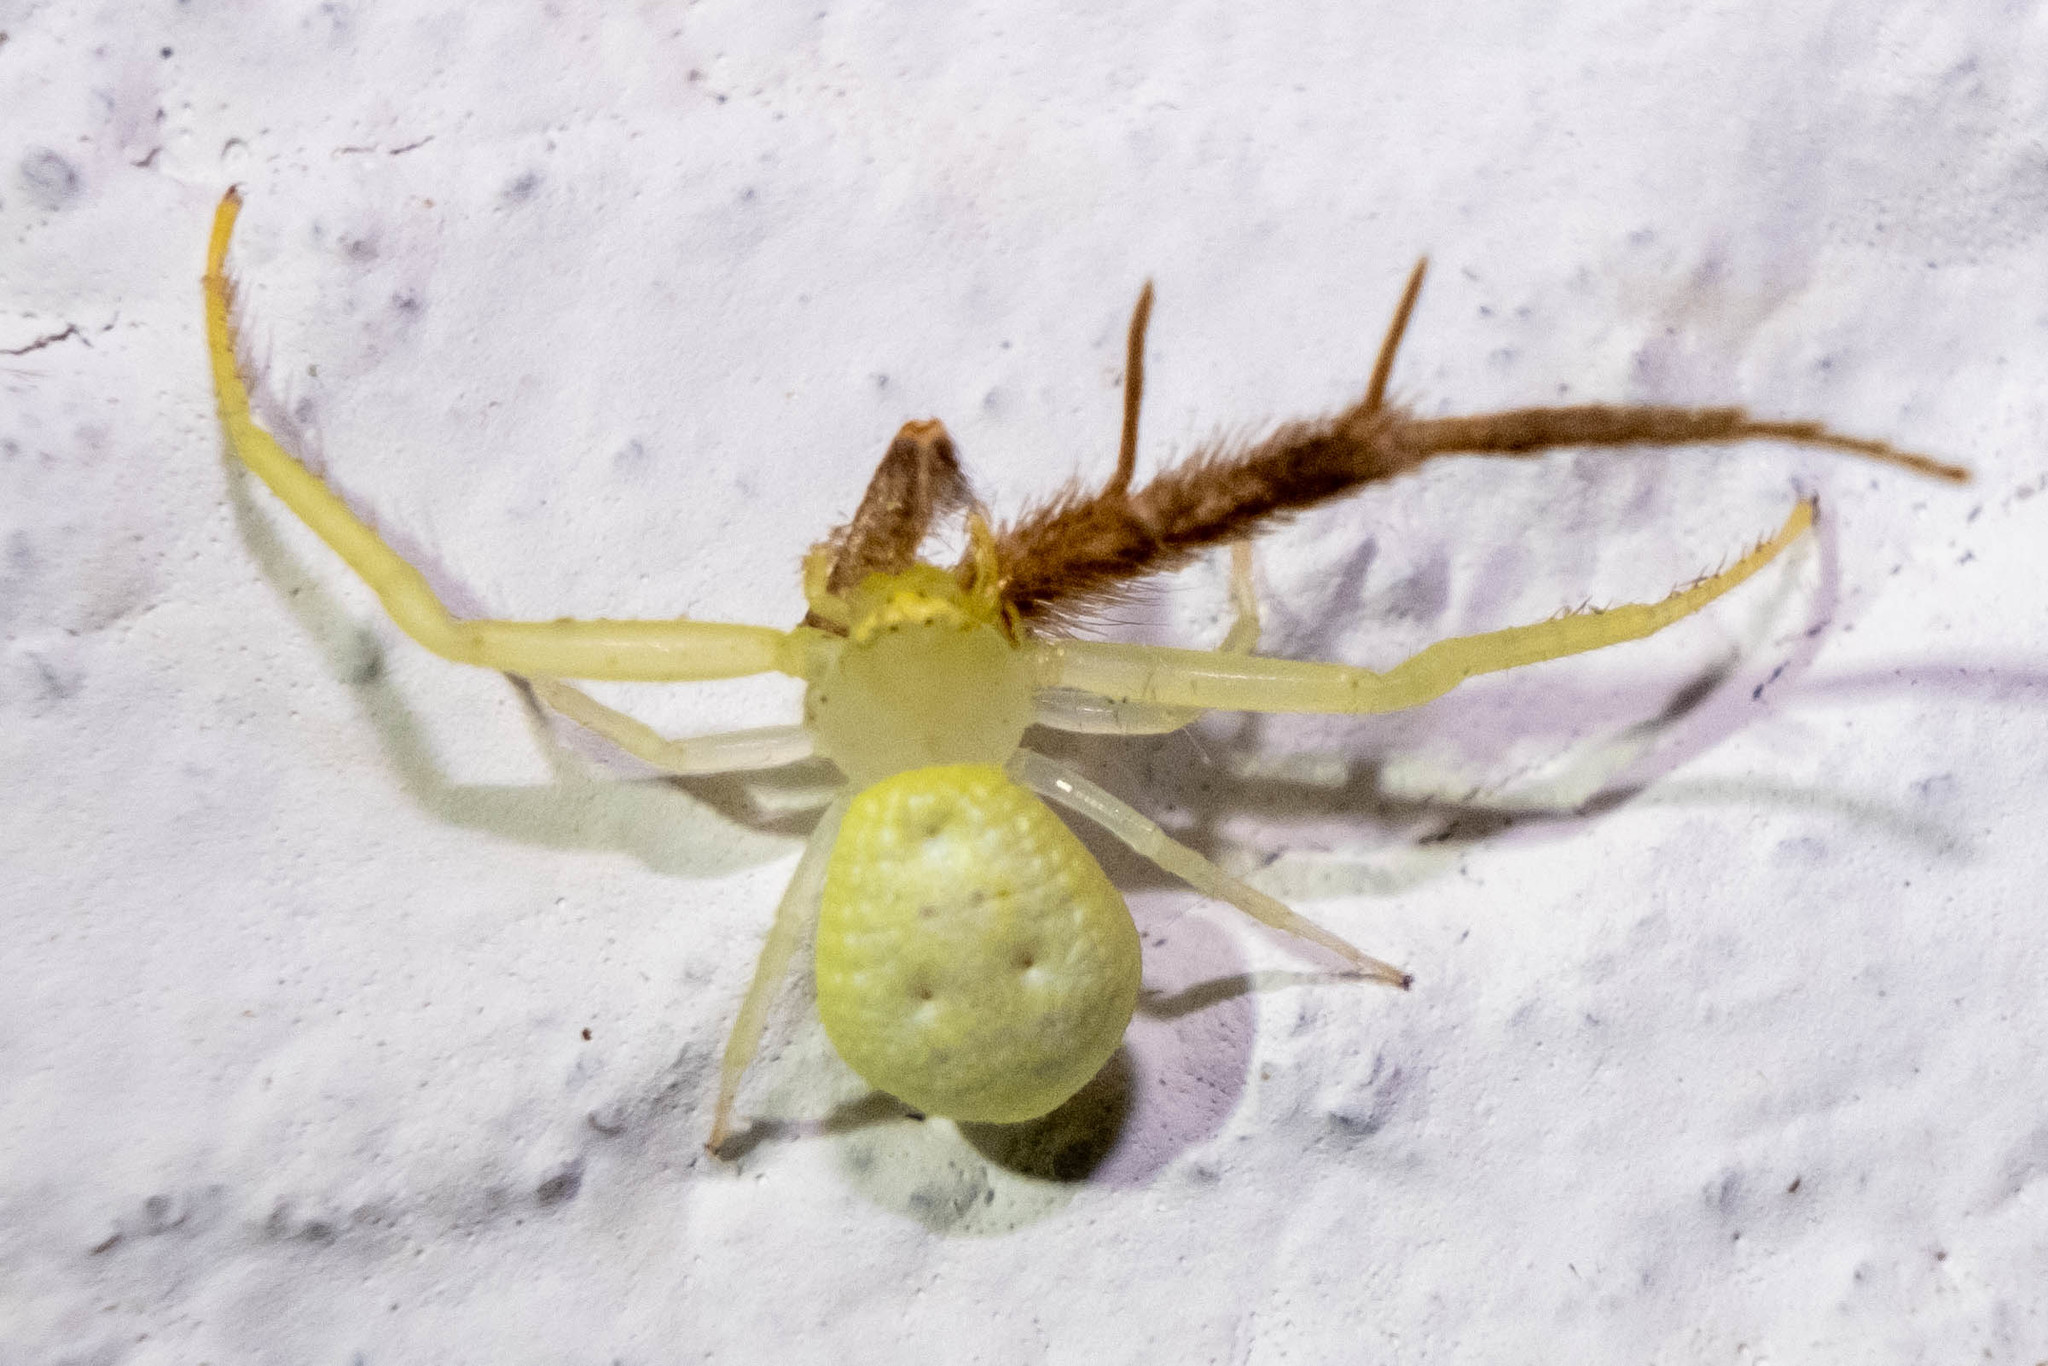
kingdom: Animalia
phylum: Arthropoda
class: Arachnida
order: Araneae
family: Thomisidae
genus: Misumessus
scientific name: Misumessus oblongus
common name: American green crab spider
